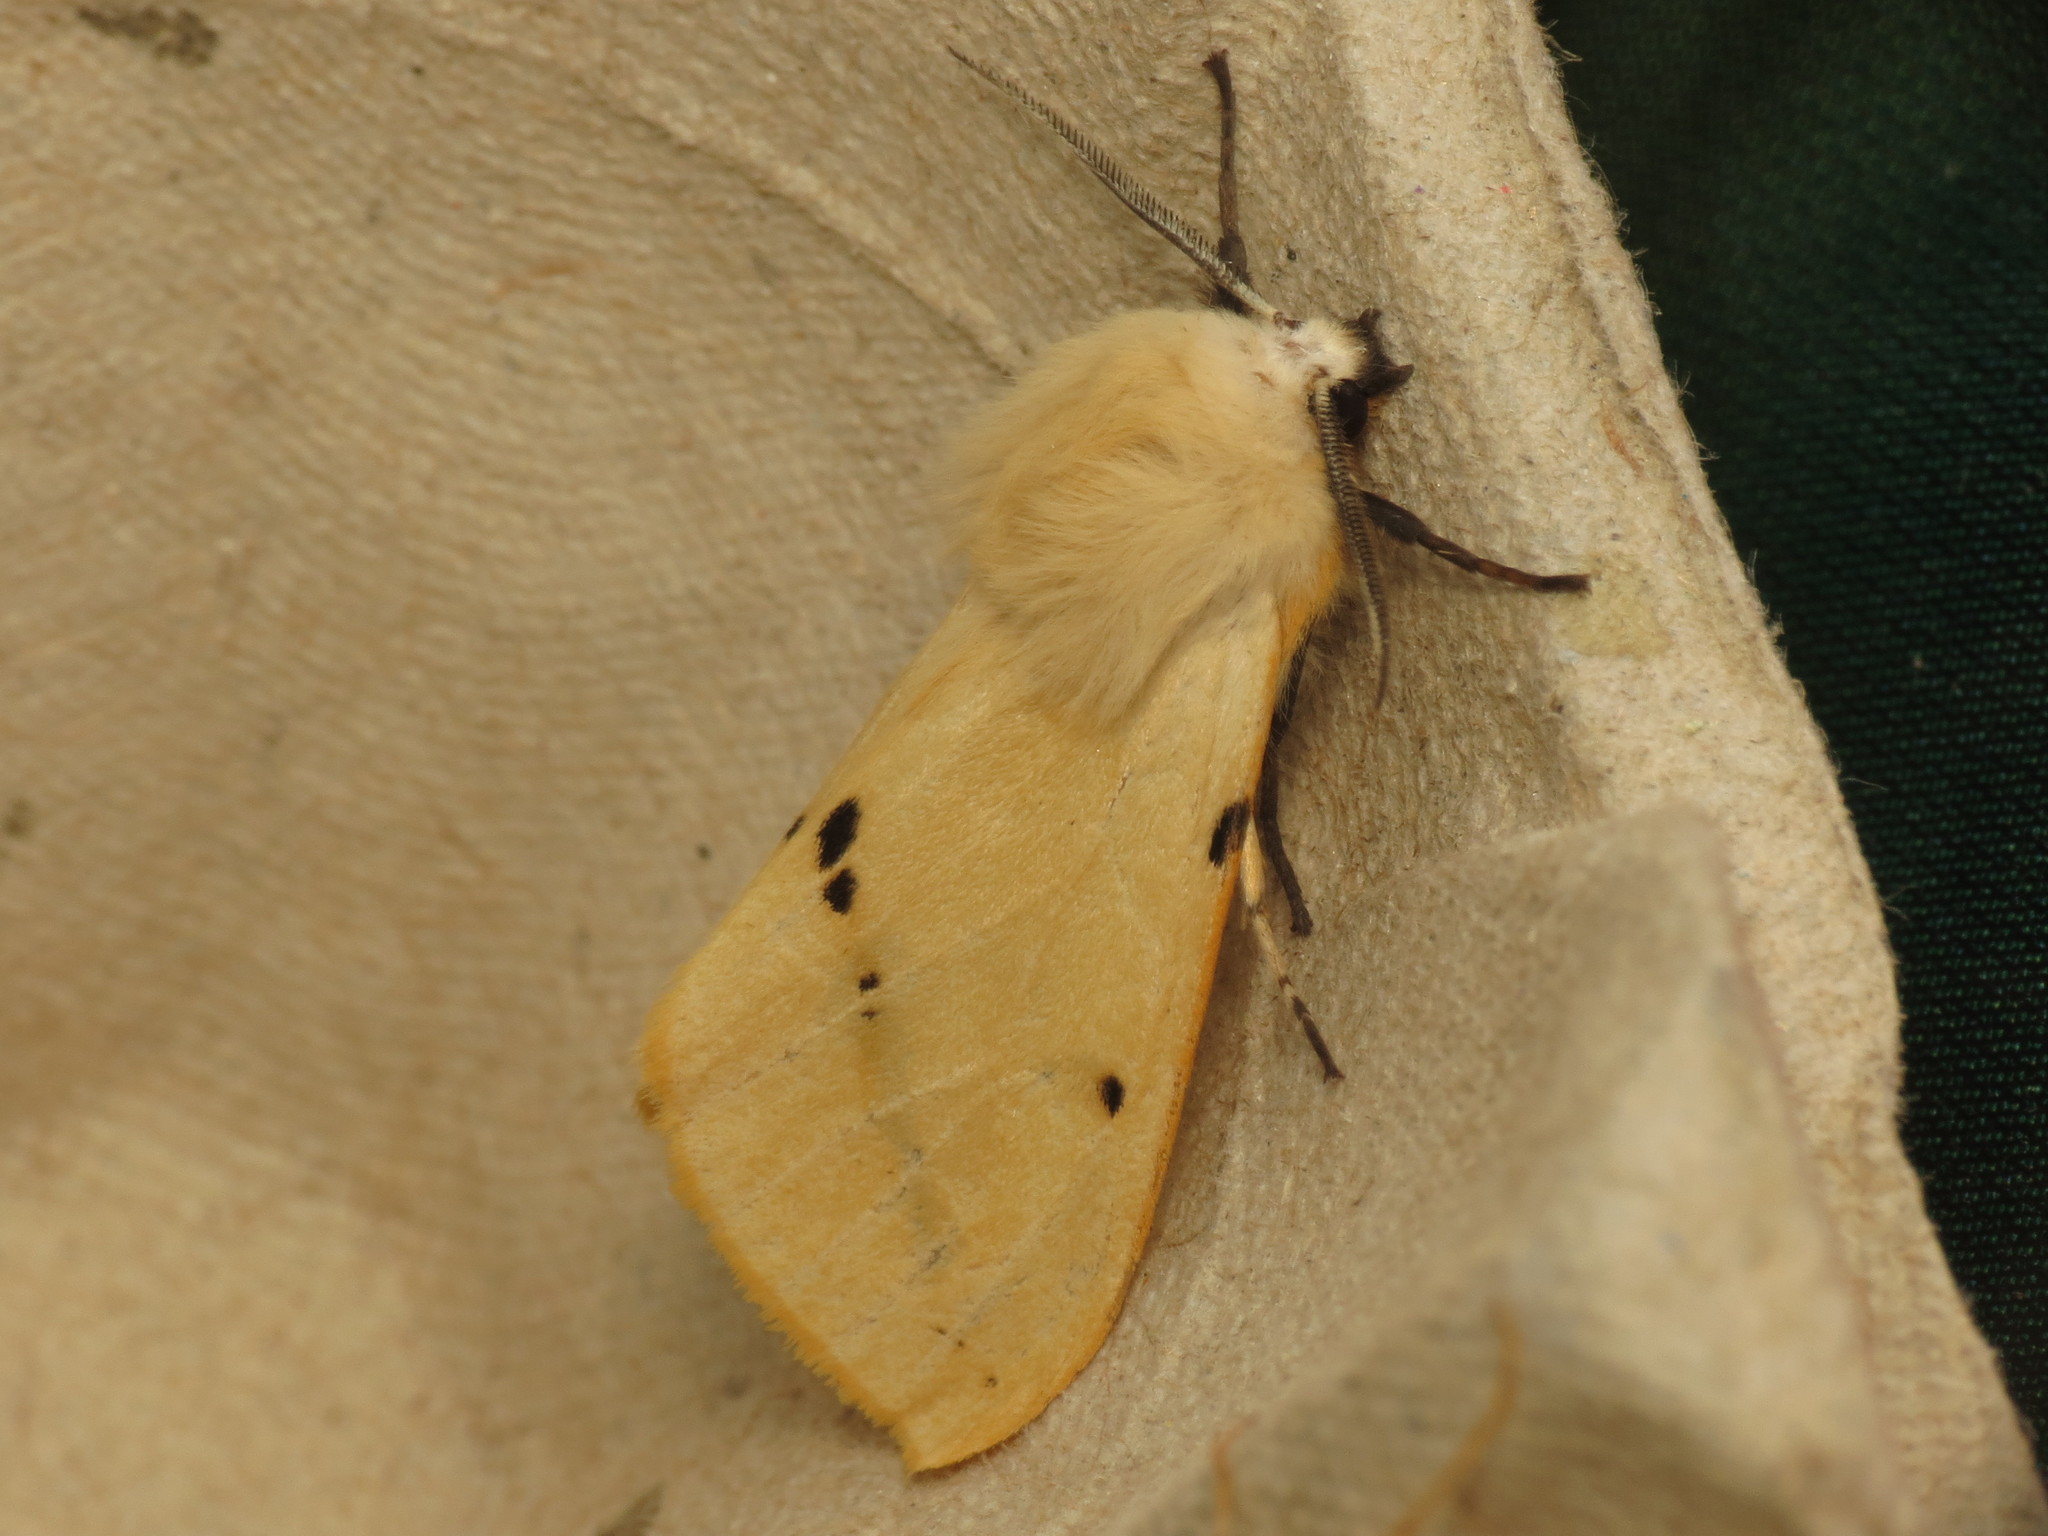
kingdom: Animalia
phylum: Arthropoda
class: Insecta
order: Lepidoptera
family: Erebidae
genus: Spilarctia
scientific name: Spilarctia lutea
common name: Buff ermine
